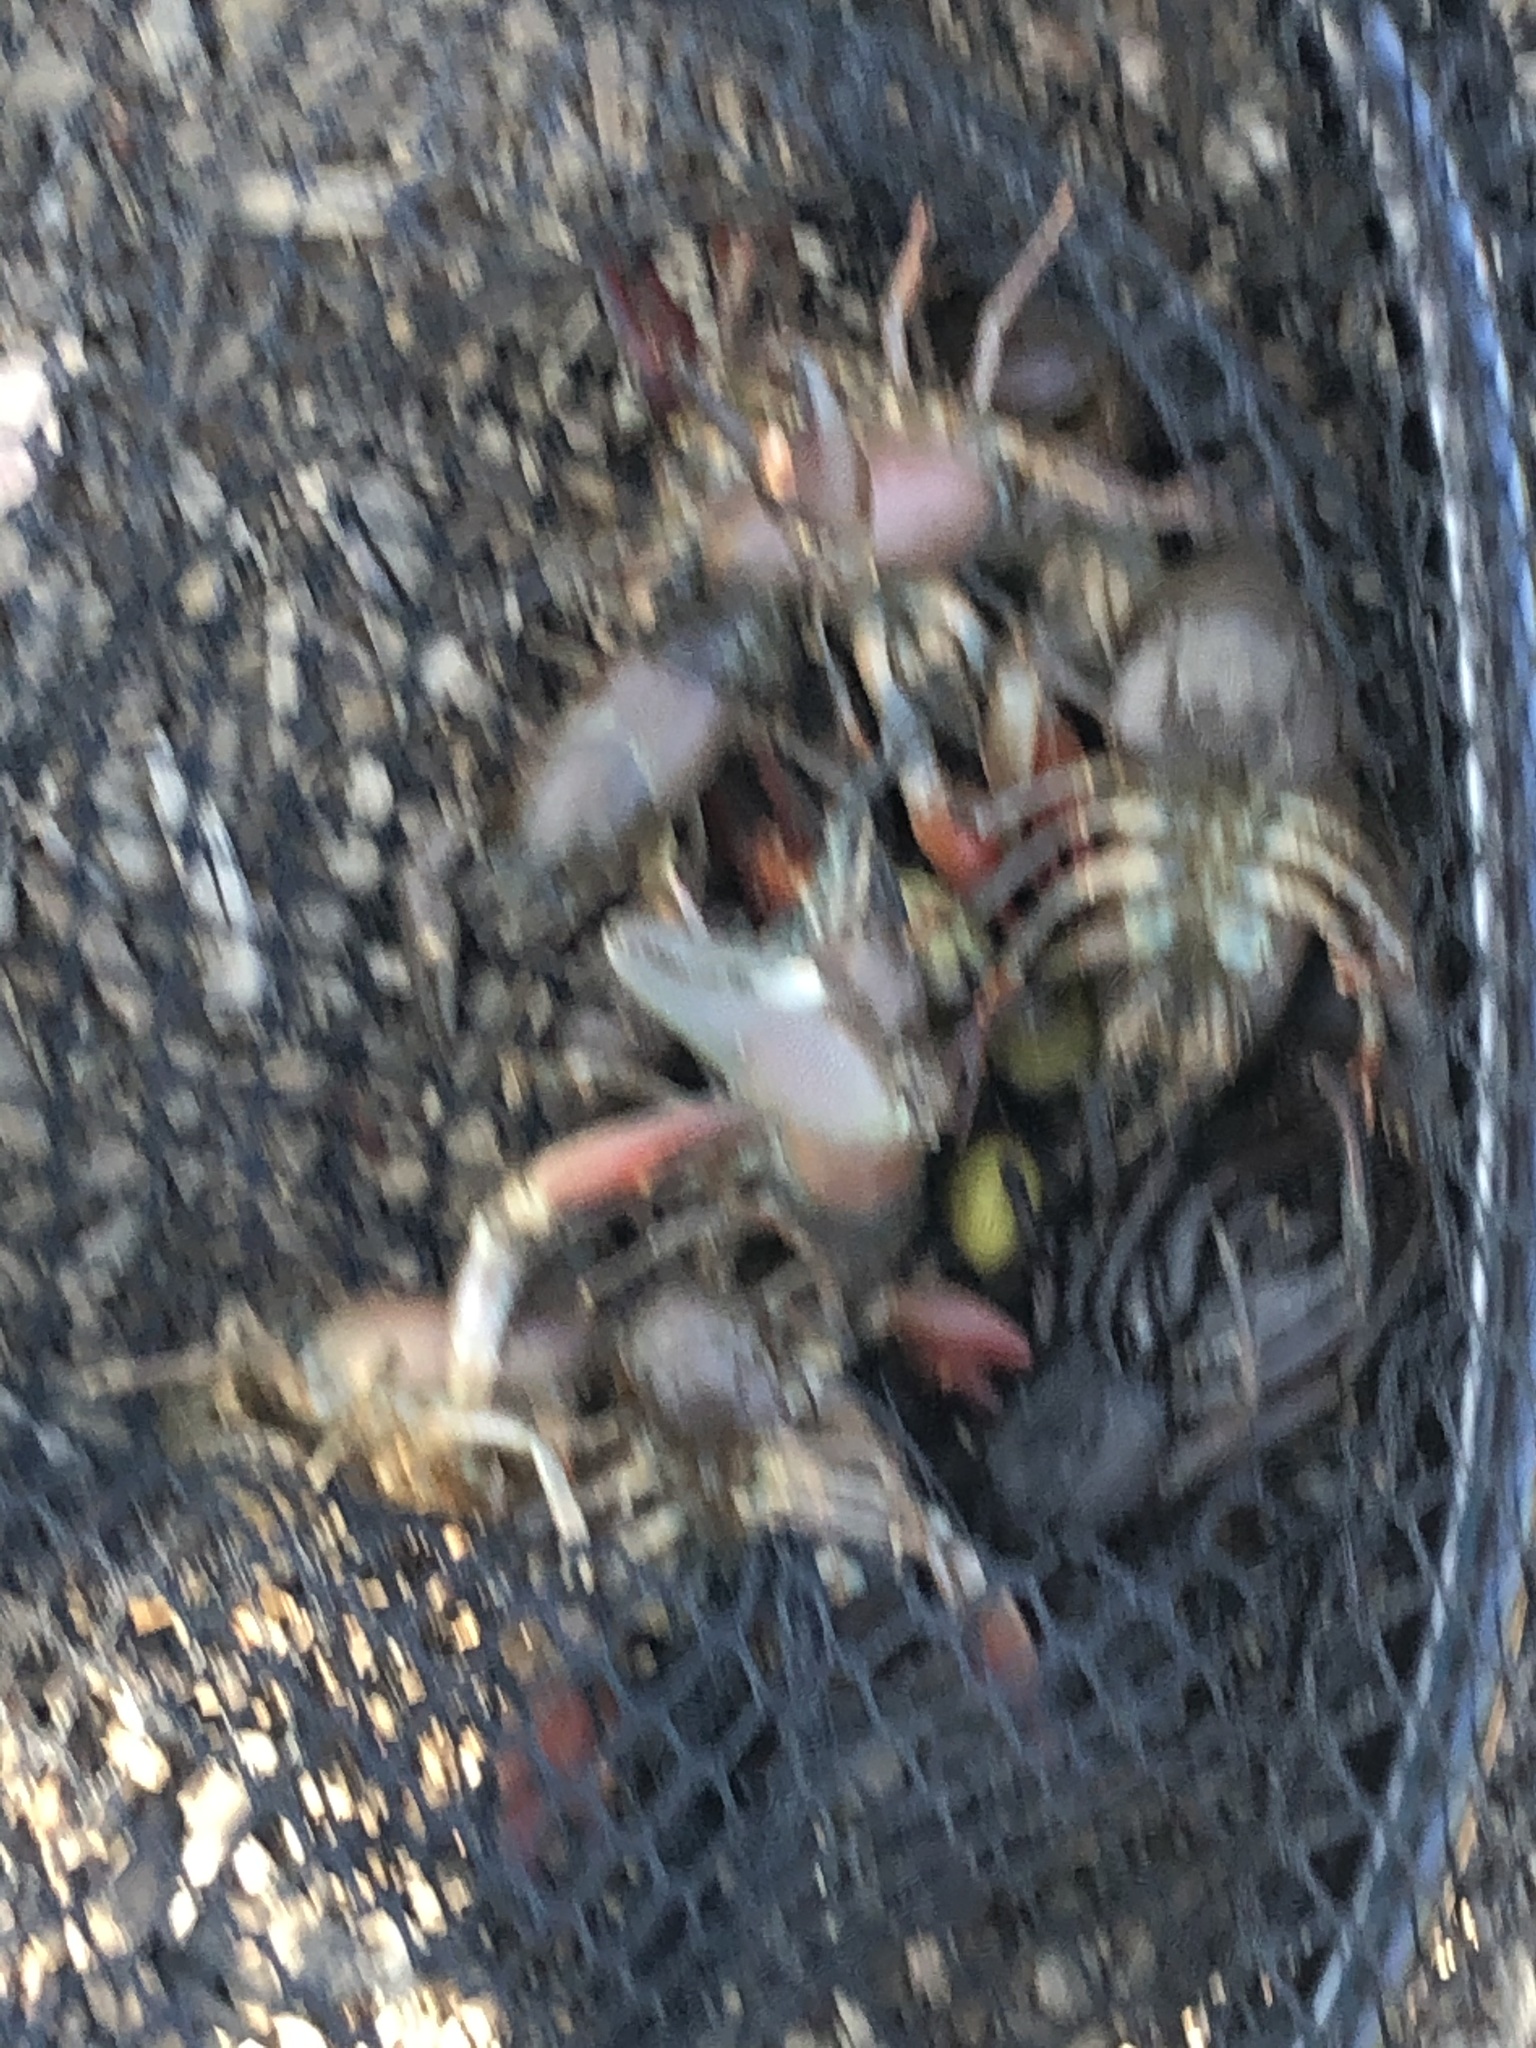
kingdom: Animalia
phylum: Arthropoda
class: Malacostraca
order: Decapoda
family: Astacidae
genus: Pacifastacus
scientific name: Pacifastacus leniusculus
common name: Signal crayfish
